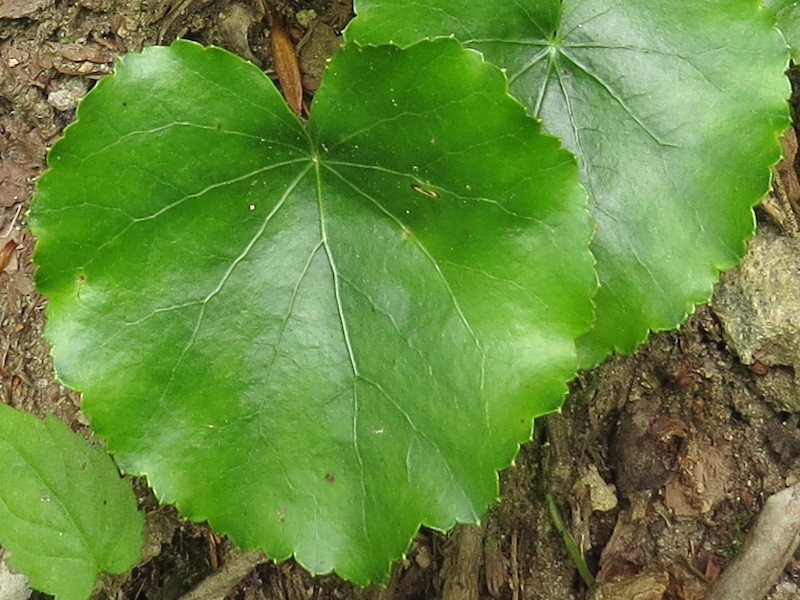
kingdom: Plantae
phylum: Tracheophyta
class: Magnoliopsida
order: Ericales
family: Diapensiaceae
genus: Galax
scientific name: Galax urceolata
